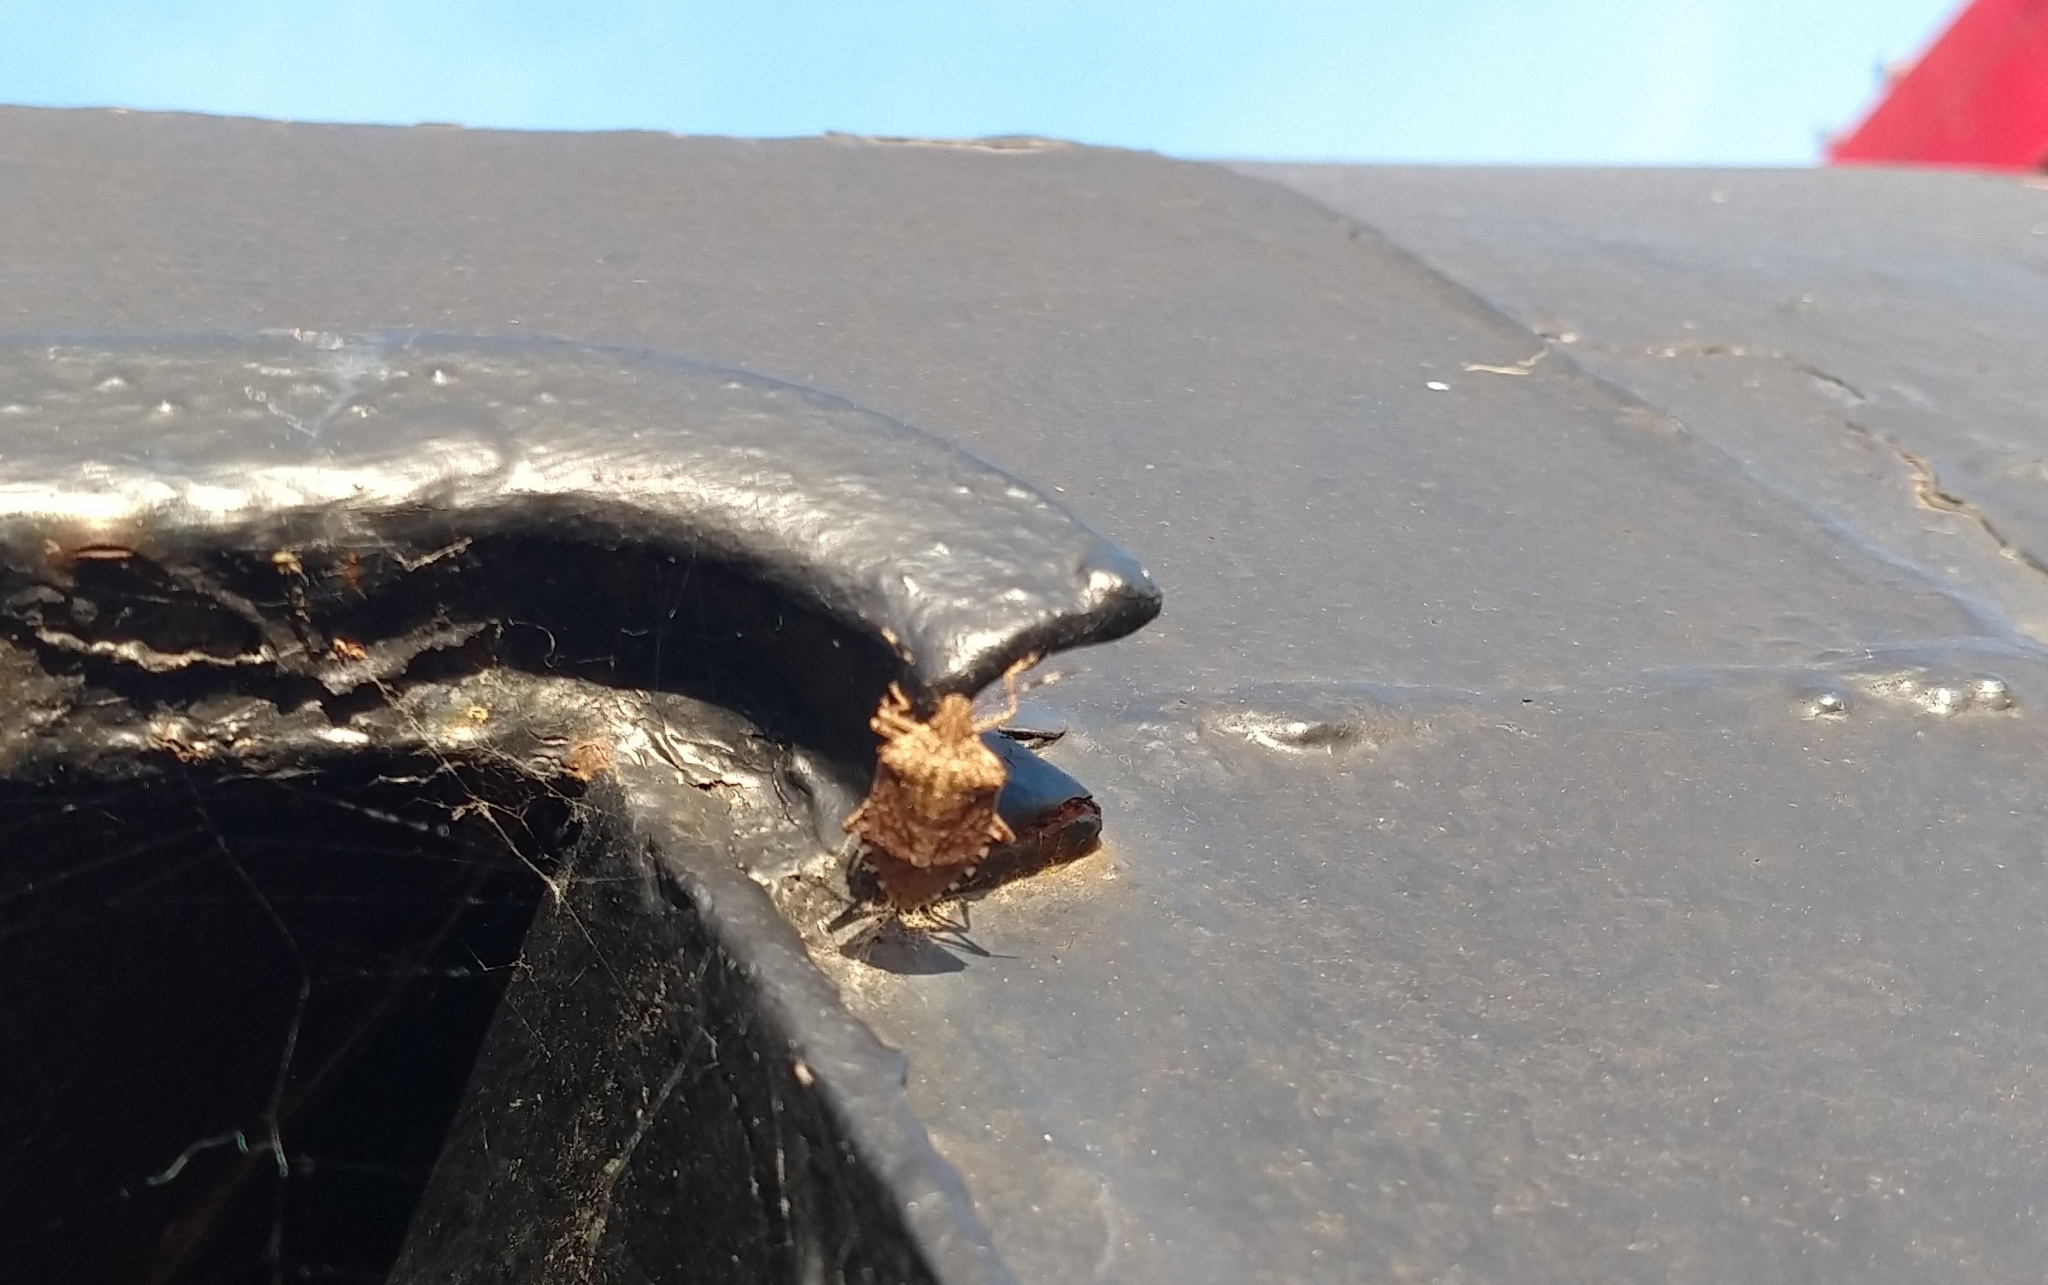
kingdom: Animalia
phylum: Arthropoda
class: Insecta
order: Hemiptera
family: Pentatomidae
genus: Halyomorpha
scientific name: Halyomorpha halys
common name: Brown marmorated stink bug
